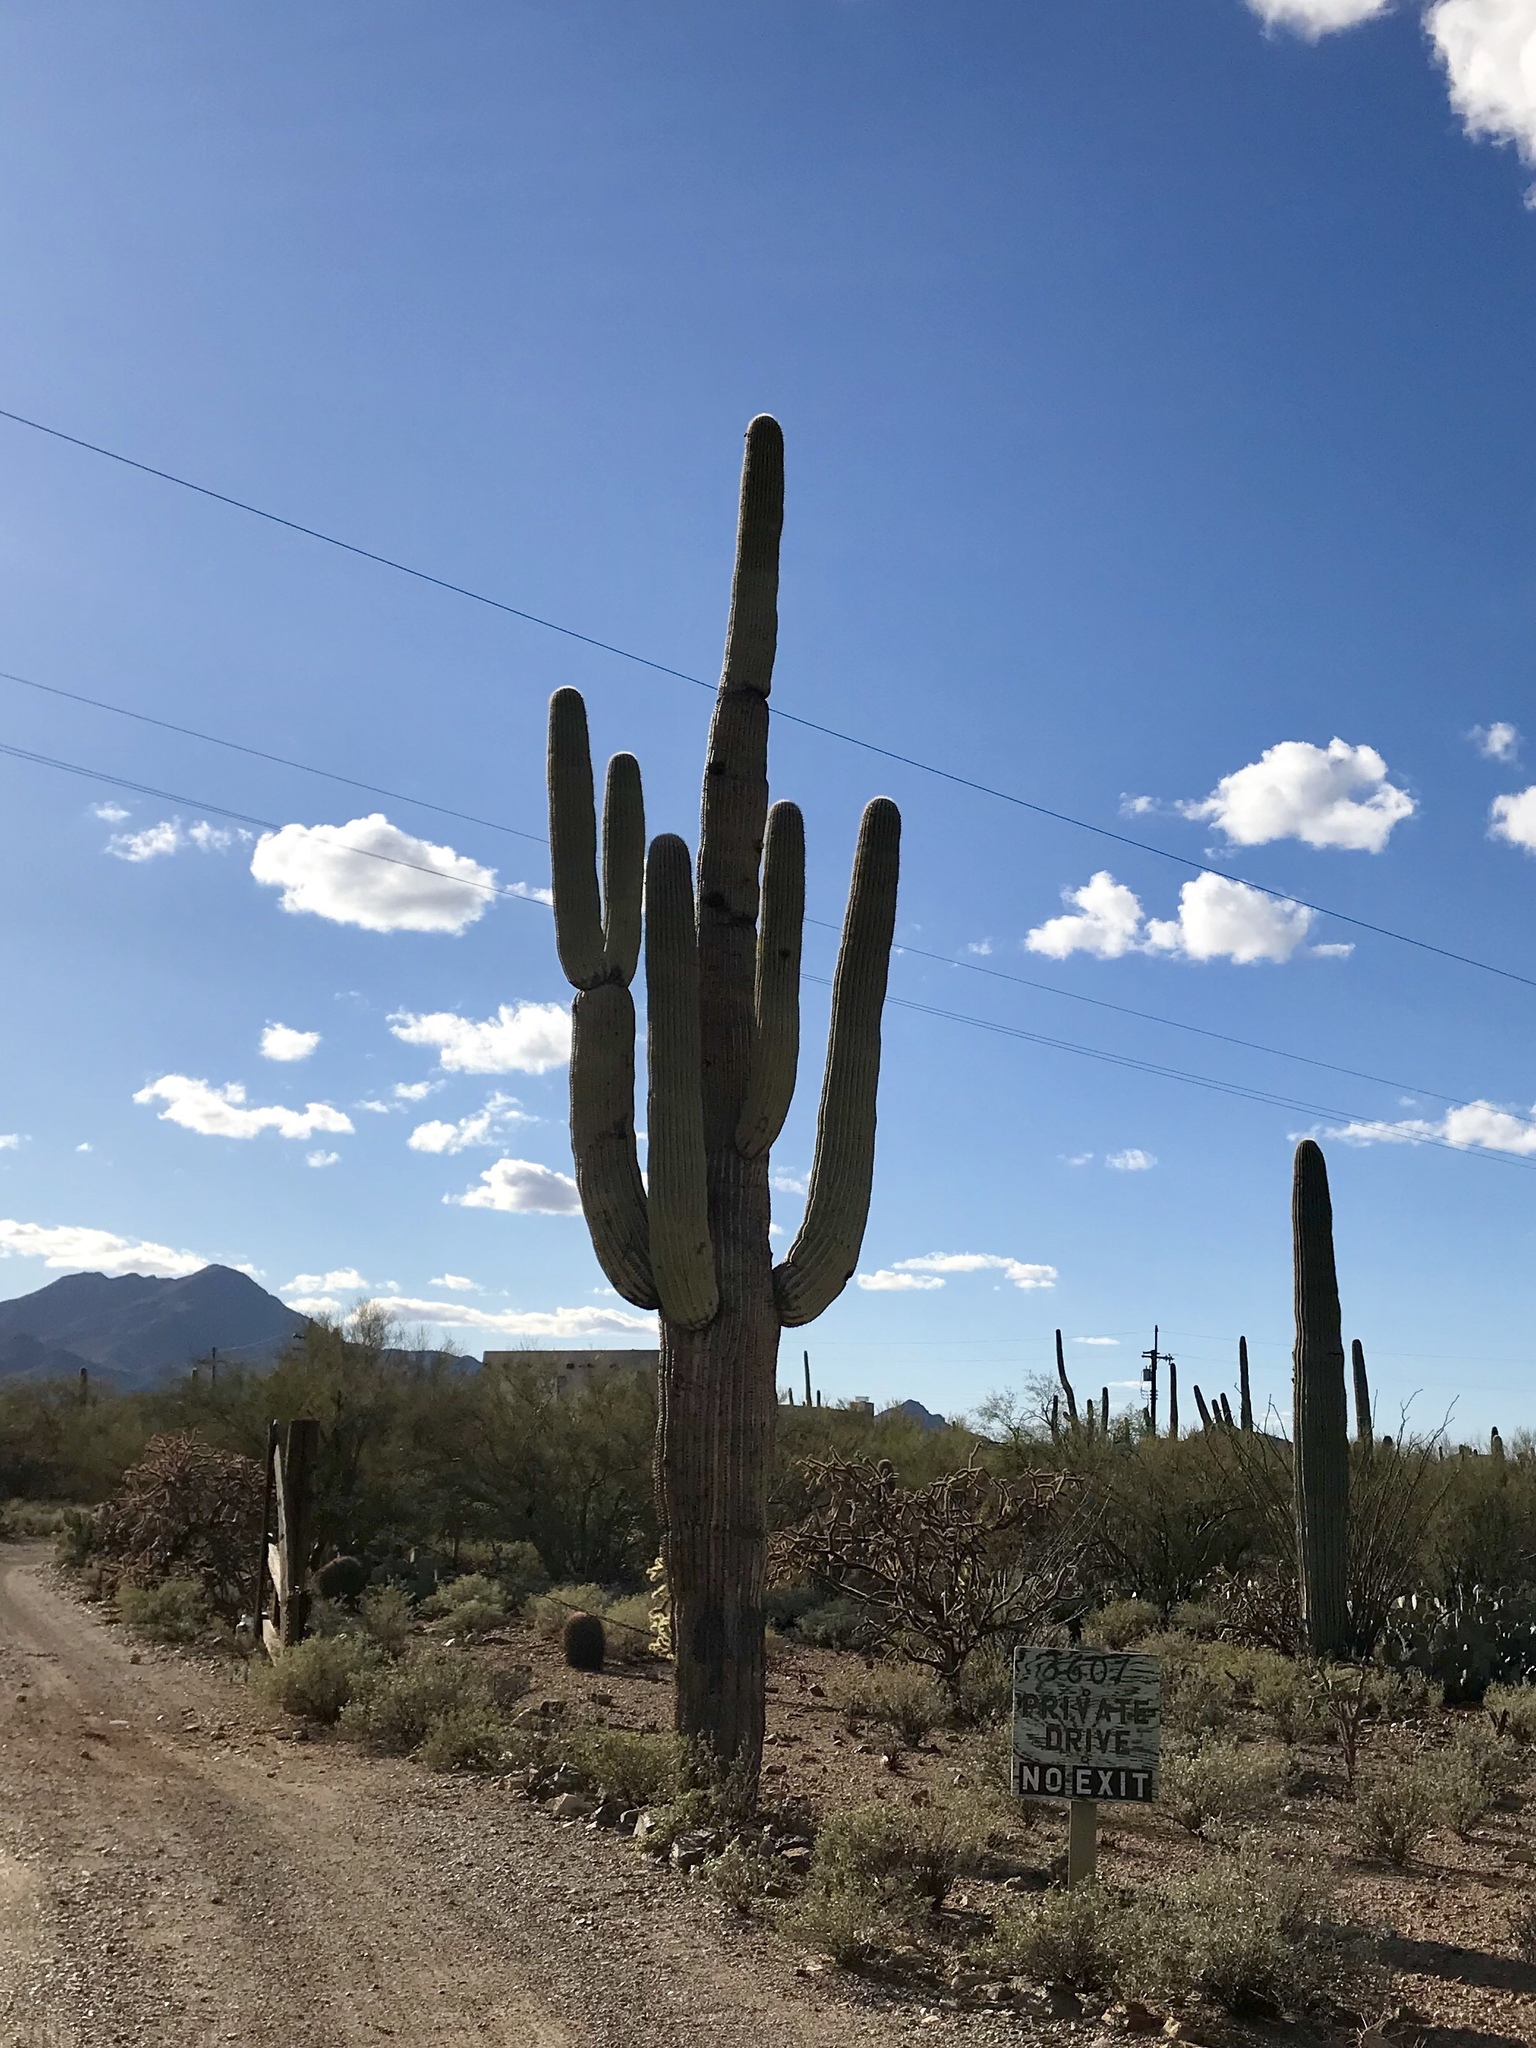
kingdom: Plantae
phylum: Tracheophyta
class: Magnoliopsida
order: Caryophyllales
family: Cactaceae
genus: Carnegiea
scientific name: Carnegiea gigantea
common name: Saguaro
